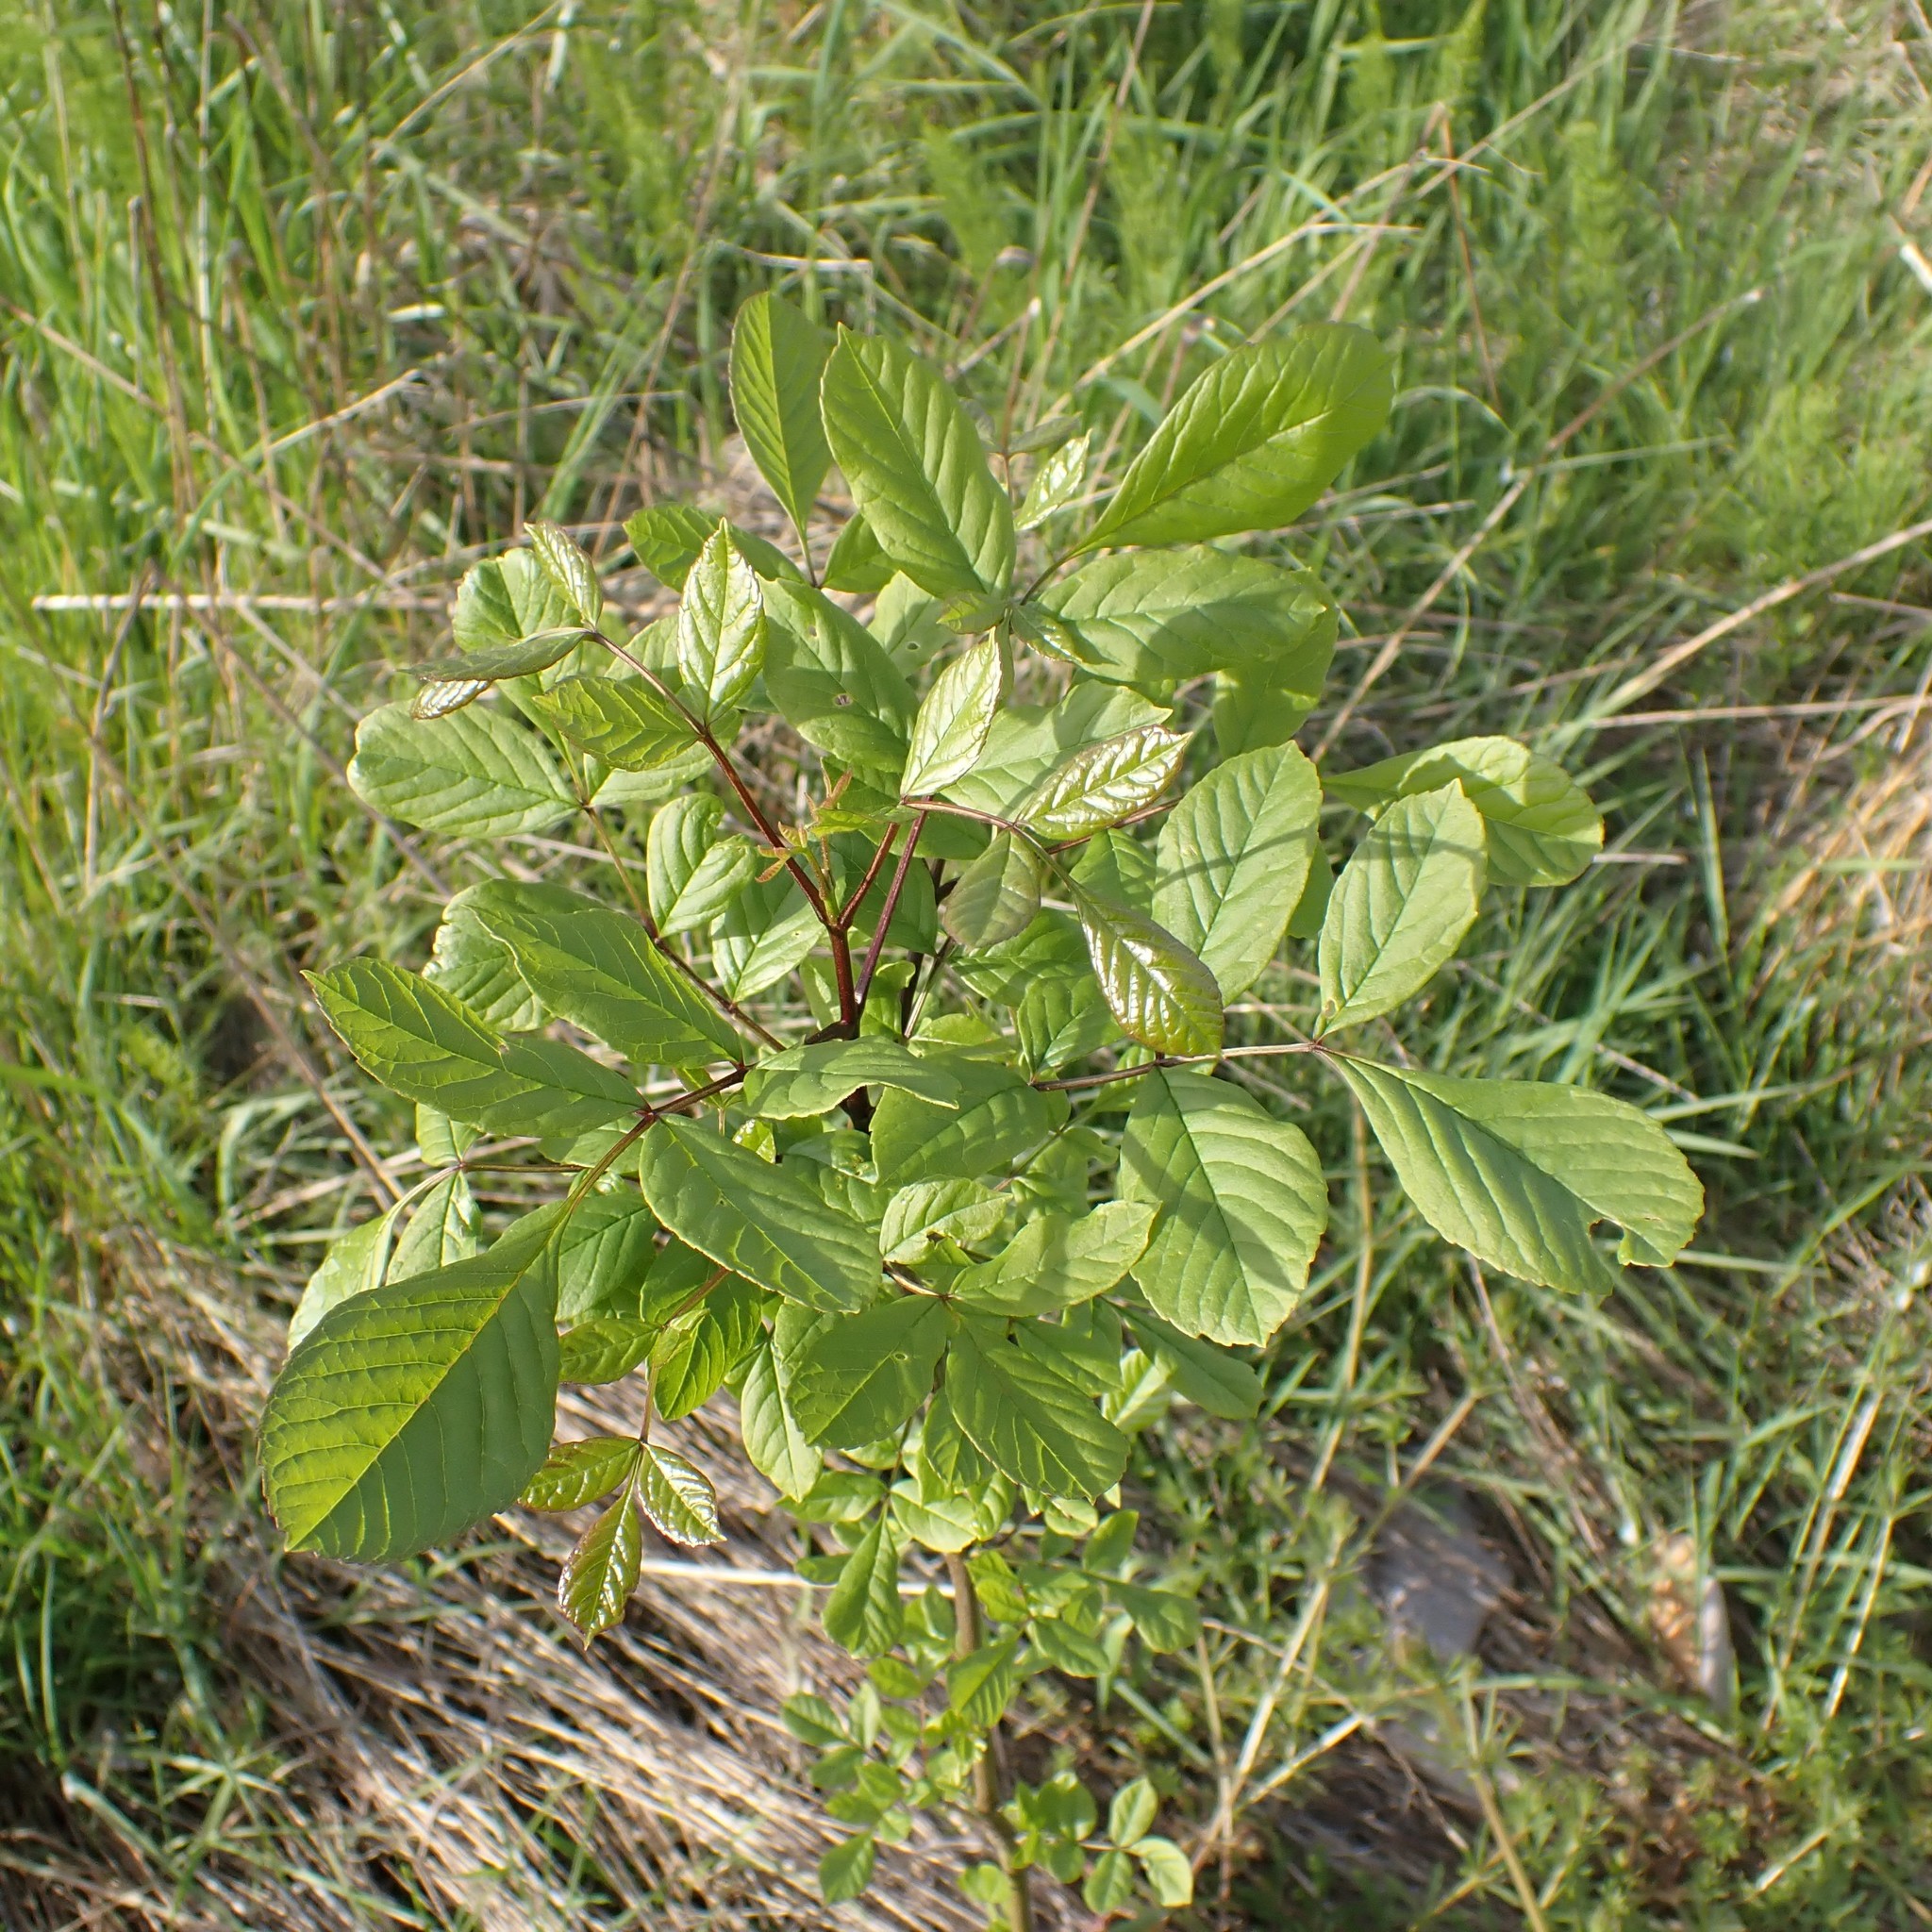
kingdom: Plantae
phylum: Tracheophyta
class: Magnoliopsida
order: Lamiales
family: Oleaceae
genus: Fraxinus
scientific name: Fraxinus latifolia
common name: Oregon ash
